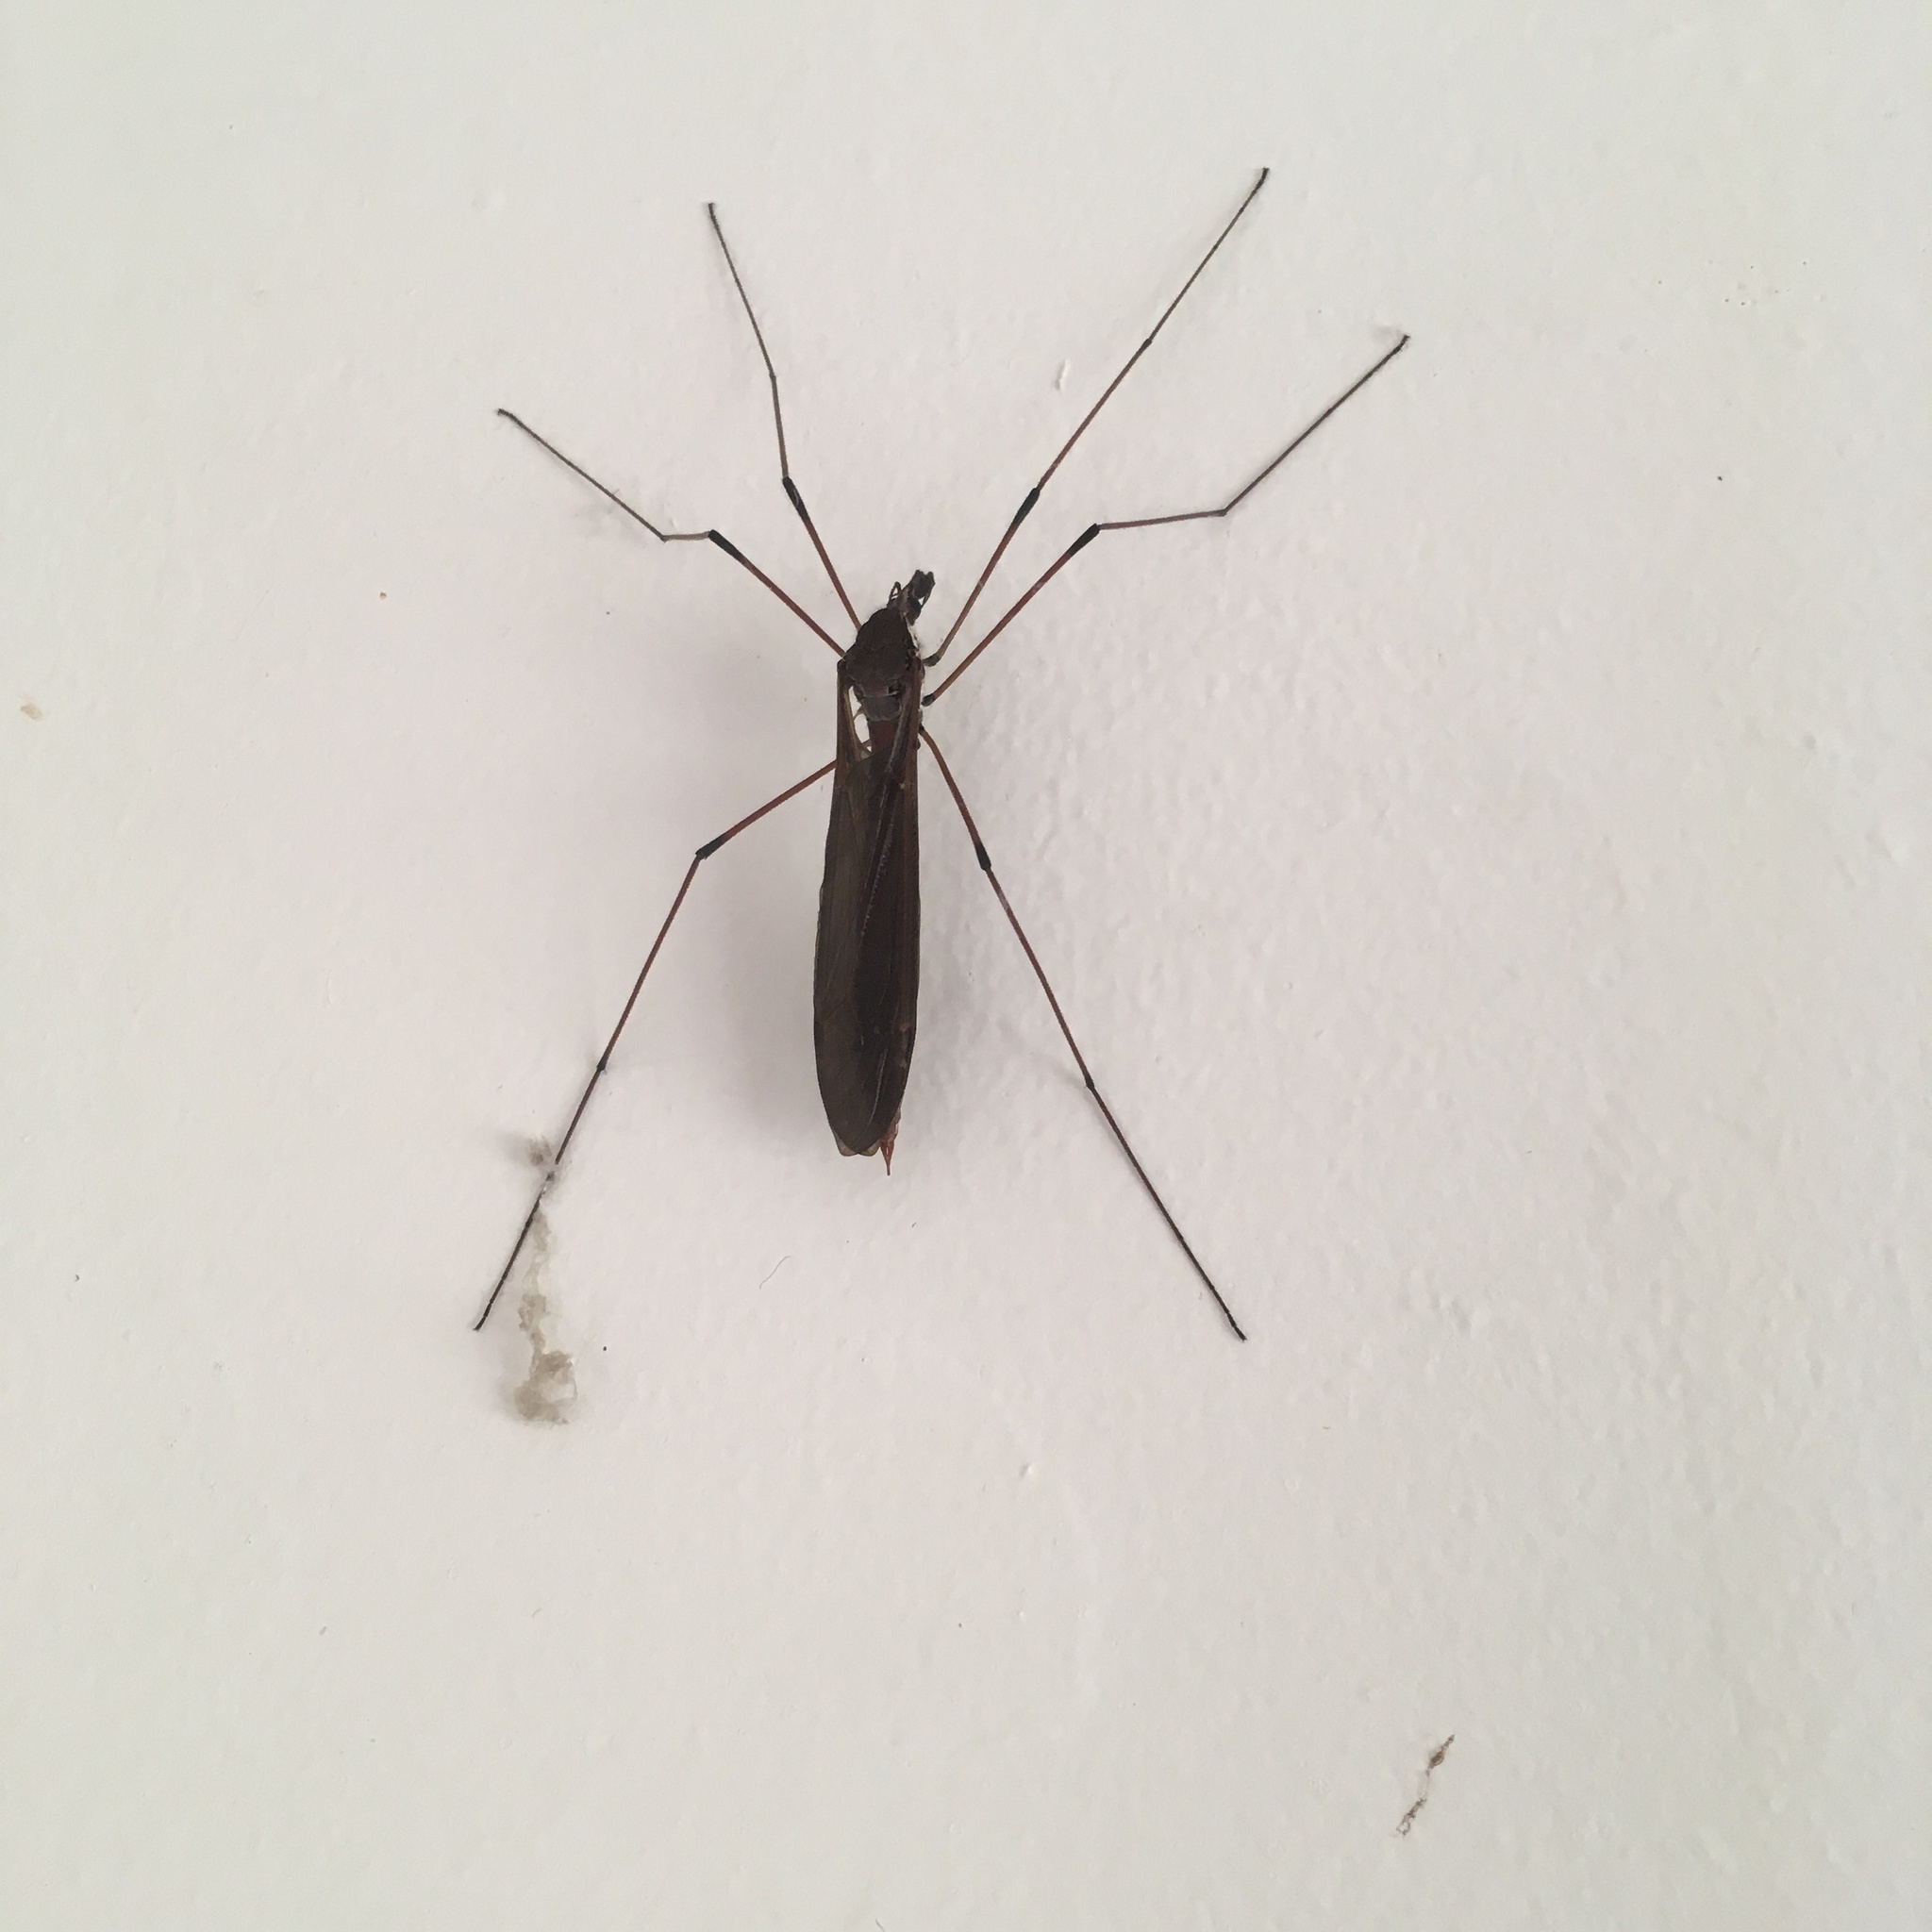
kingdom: Animalia
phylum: Arthropoda
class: Insecta
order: Diptera
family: Tipulidae
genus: Holorusia
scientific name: Holorusia hespera
